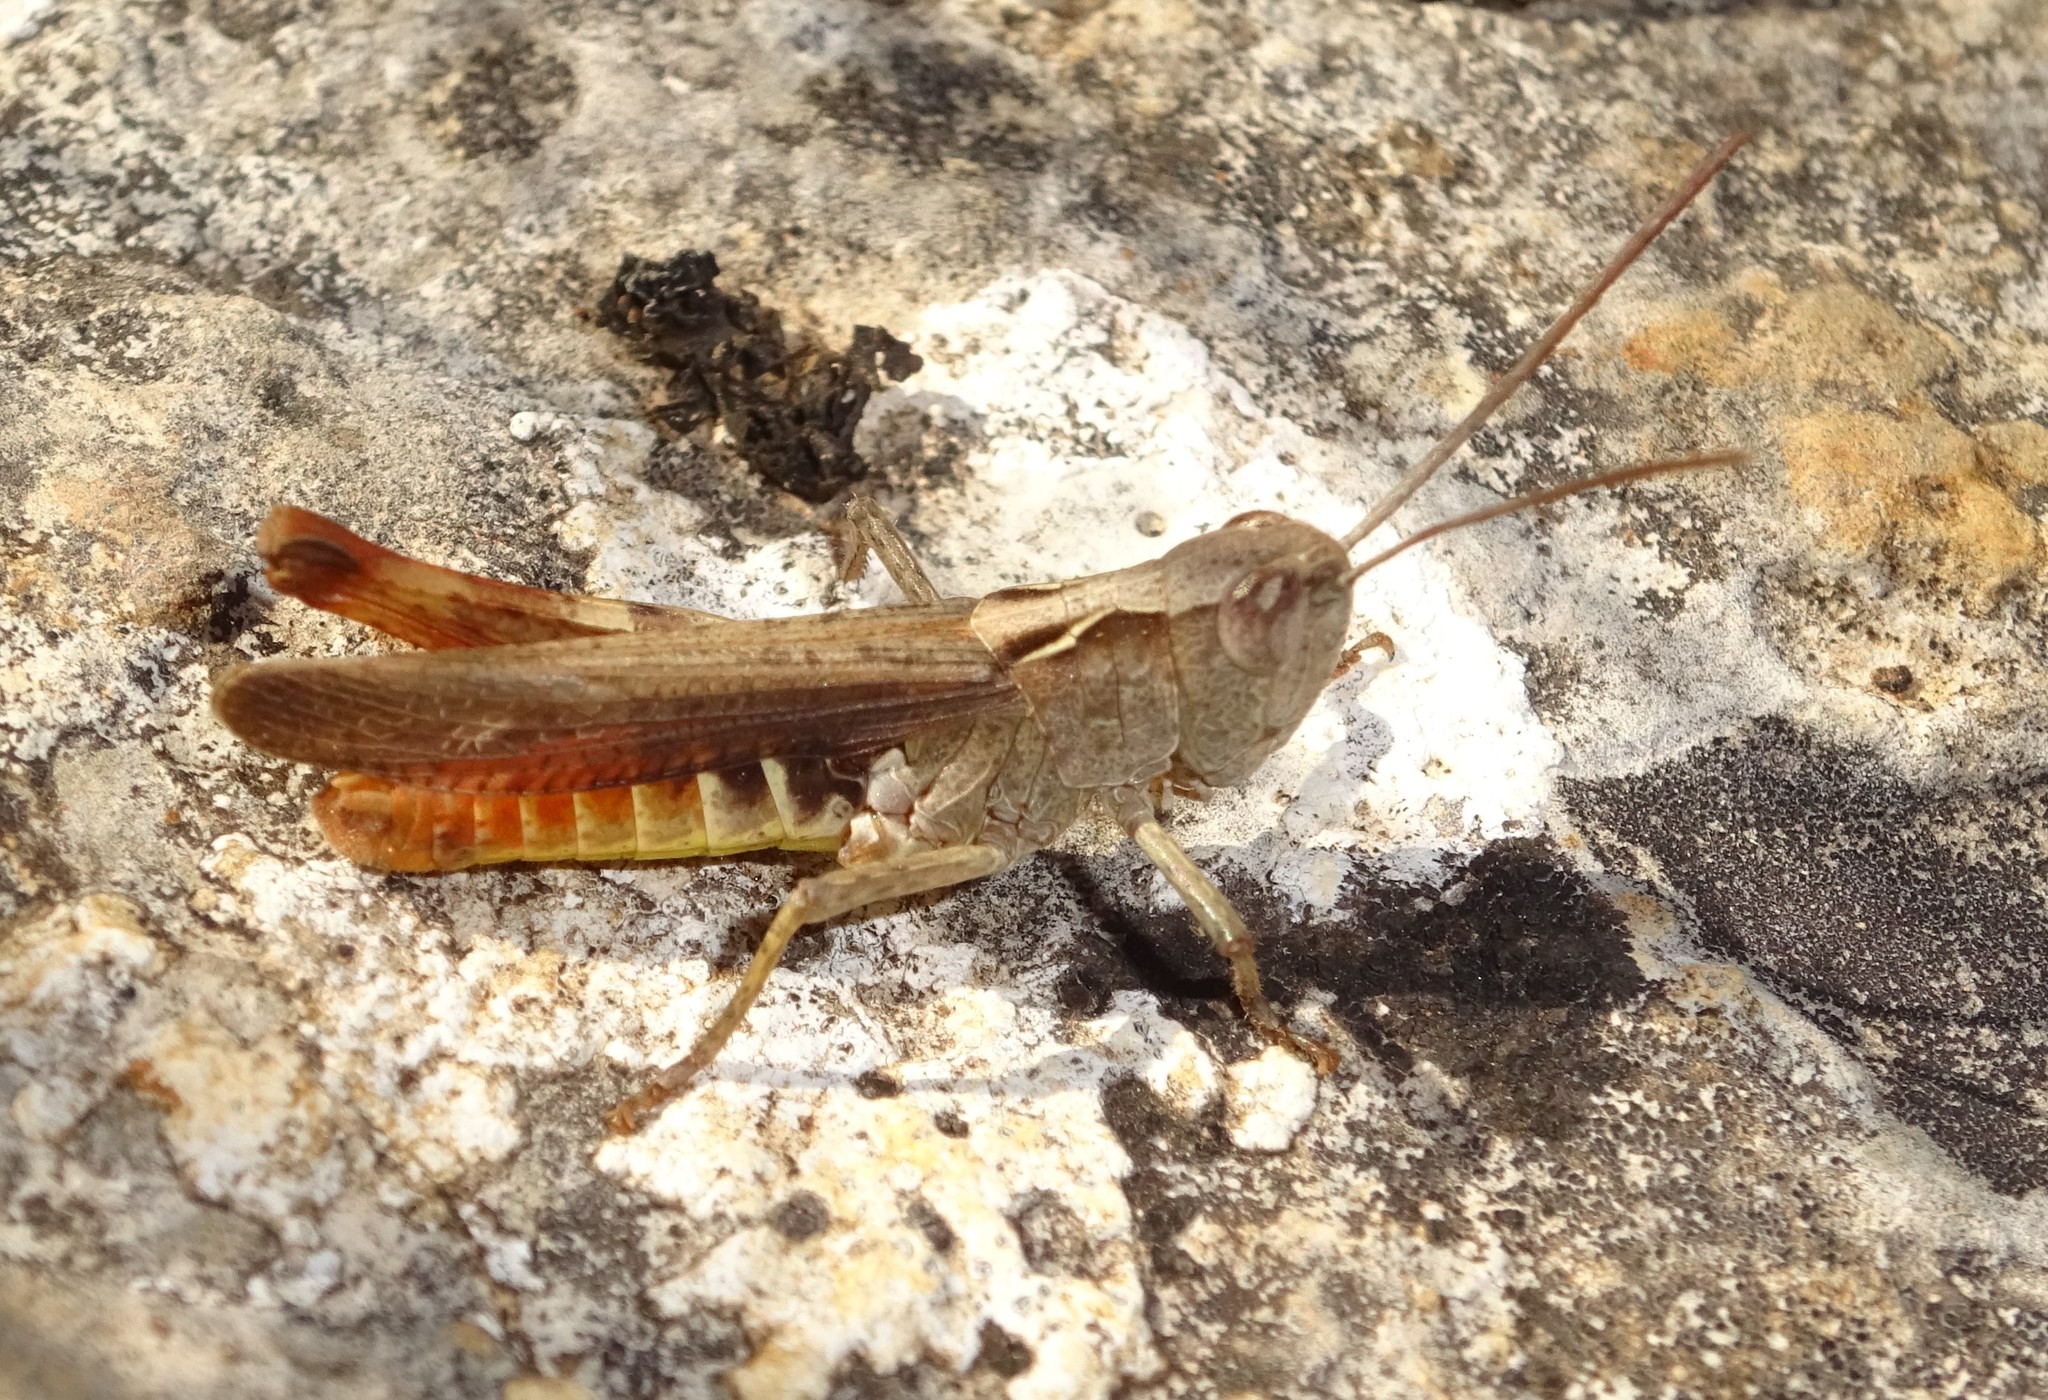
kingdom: Animalia
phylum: Arthropoda
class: Insecta
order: Orthoptera
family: Acrididae
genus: Chorthippus
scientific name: Chorthippus vagans
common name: Heath grasshopper
